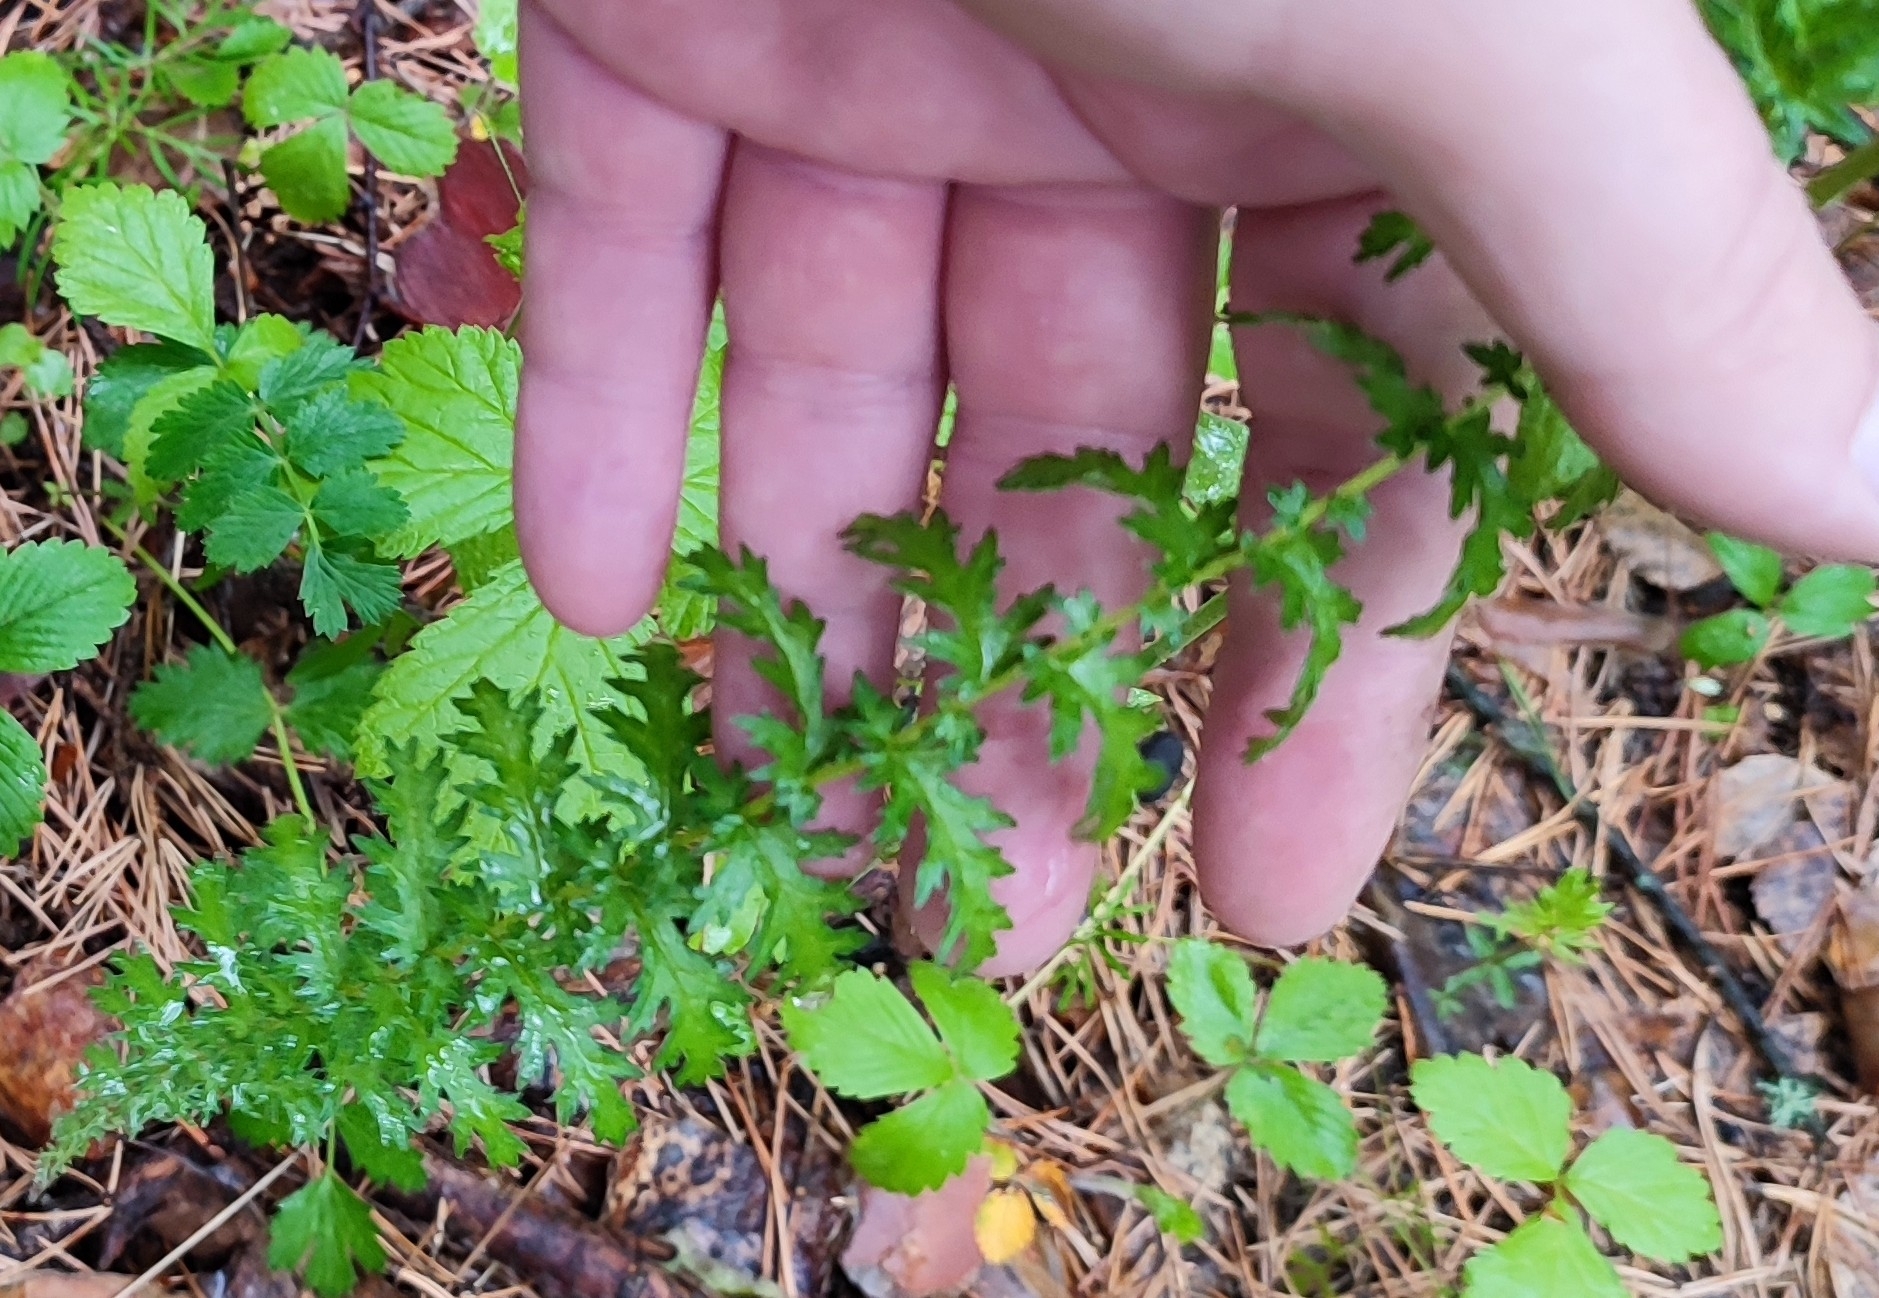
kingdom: Plantae
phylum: Tracheophyta
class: Magnoliopsida
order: Rosales
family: Rosaceae
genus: Filipendula
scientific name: Filipendula vulgaris
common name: Dropwort
